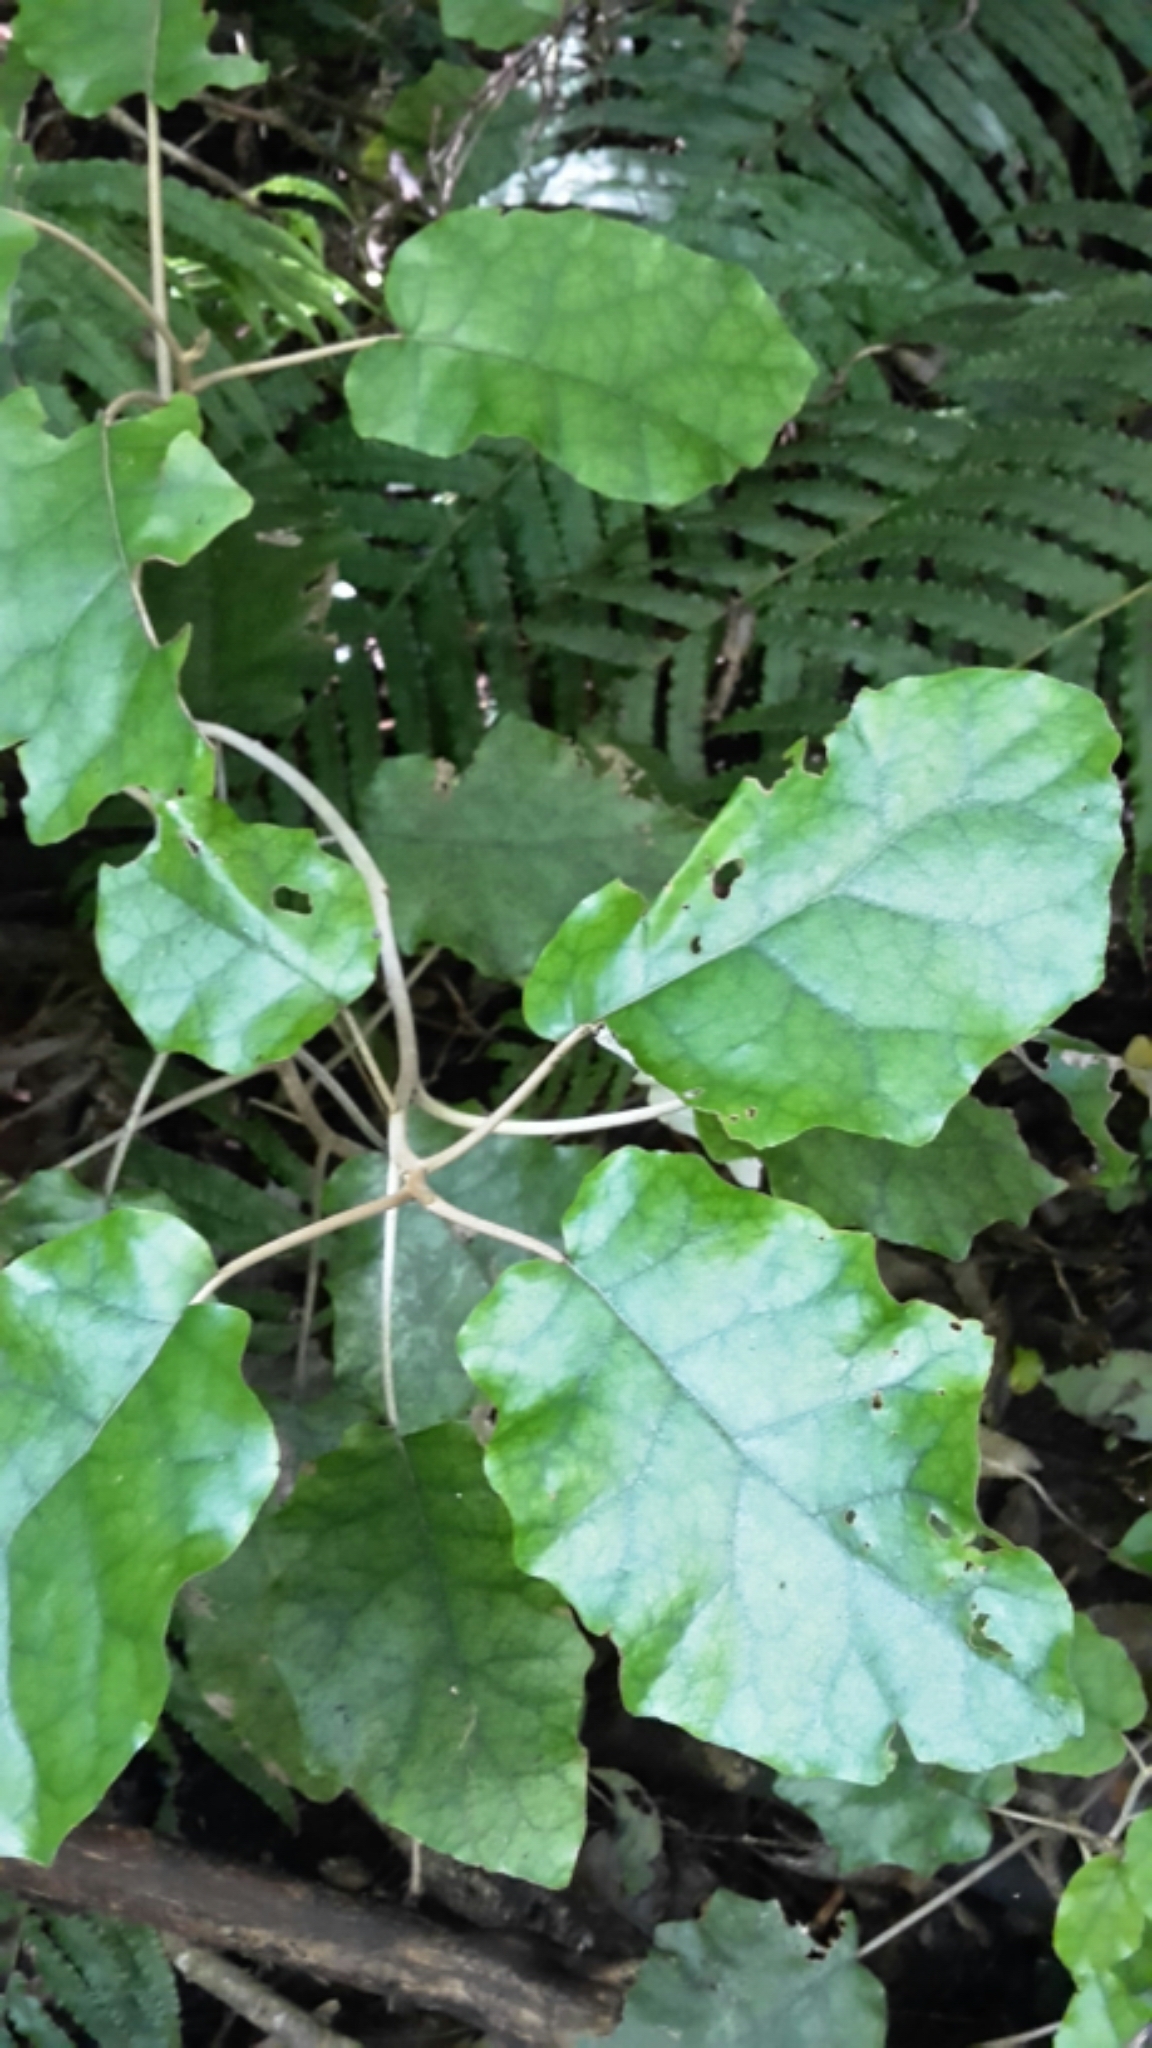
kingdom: Plantae
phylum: Tracheophyta
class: Magnoliopsida
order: Asterales
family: Asteraceae
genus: Brachyglottis
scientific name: Brachyglottis repanda
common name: Hedge ragwort
